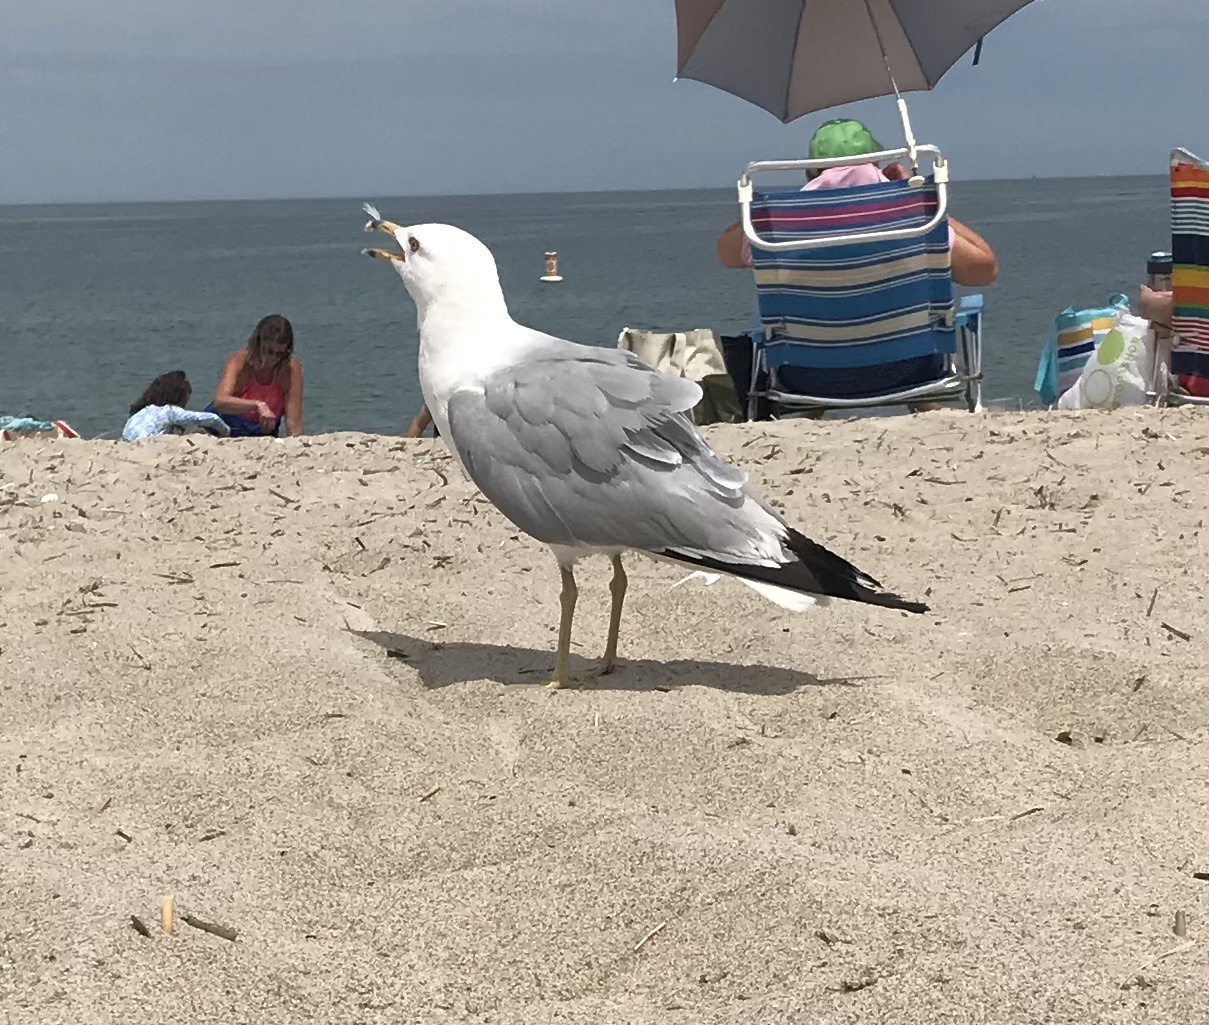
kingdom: Animalia
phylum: Chordata
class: Aves
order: Charadriiformes
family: Laridae
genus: Larus
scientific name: Larus delawarensis
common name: Ring-billed gull
